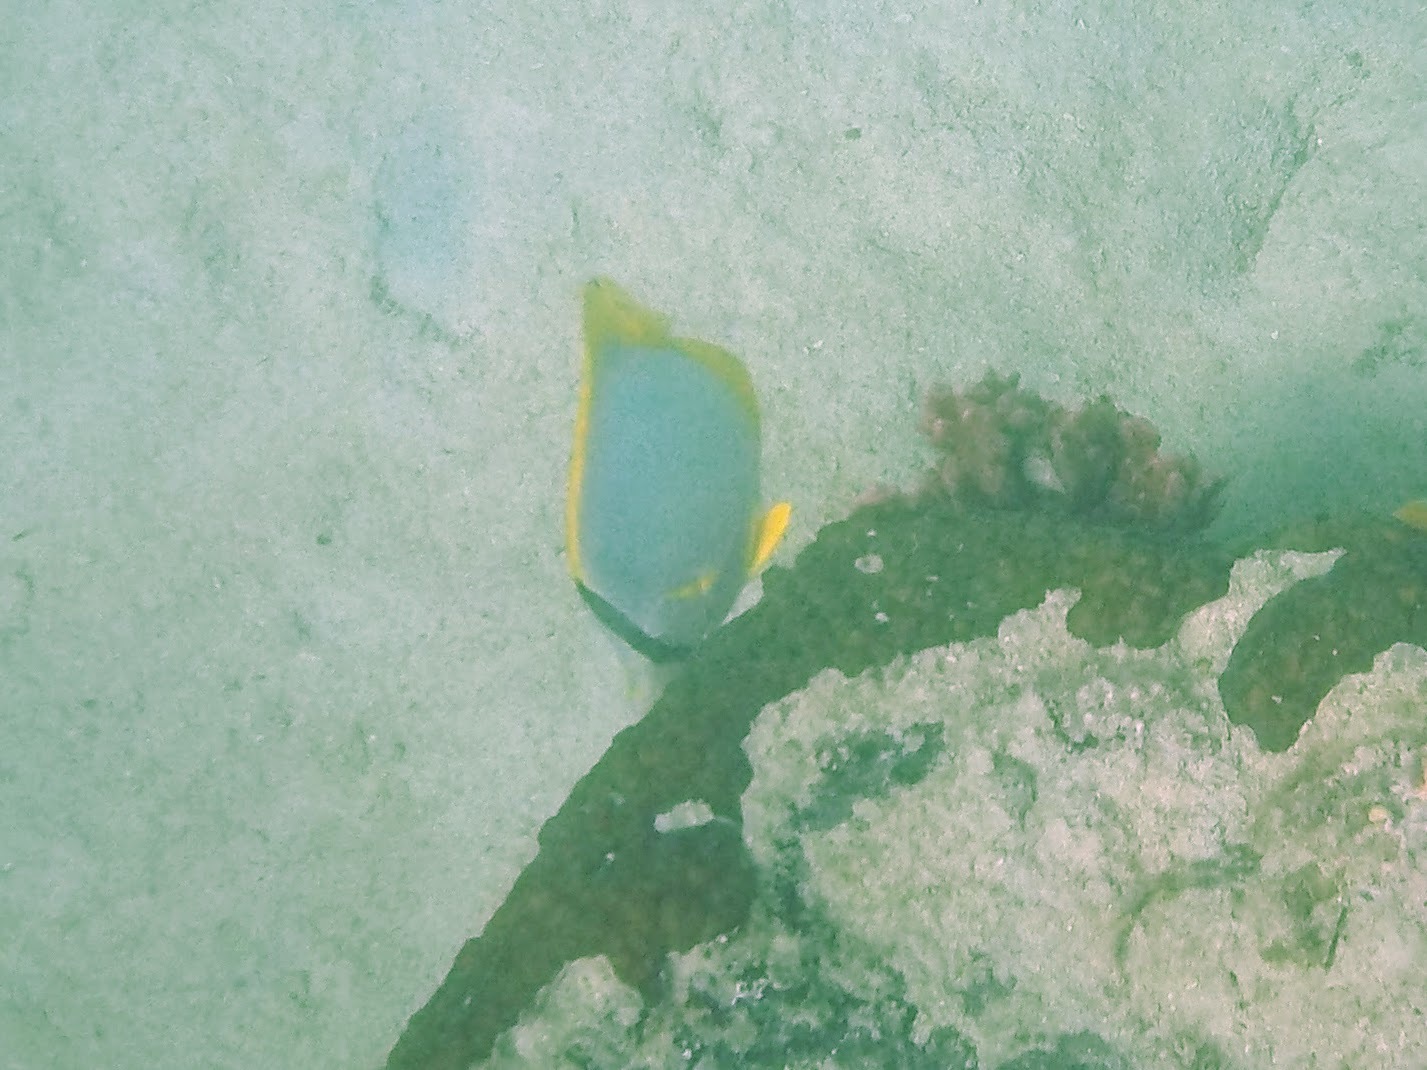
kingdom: Animalia
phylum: Chordata
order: Perciformes
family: Chaetodontidae
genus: Chaetodon
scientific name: Chaetodon ocellatus
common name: Spotfin butterflyfish
